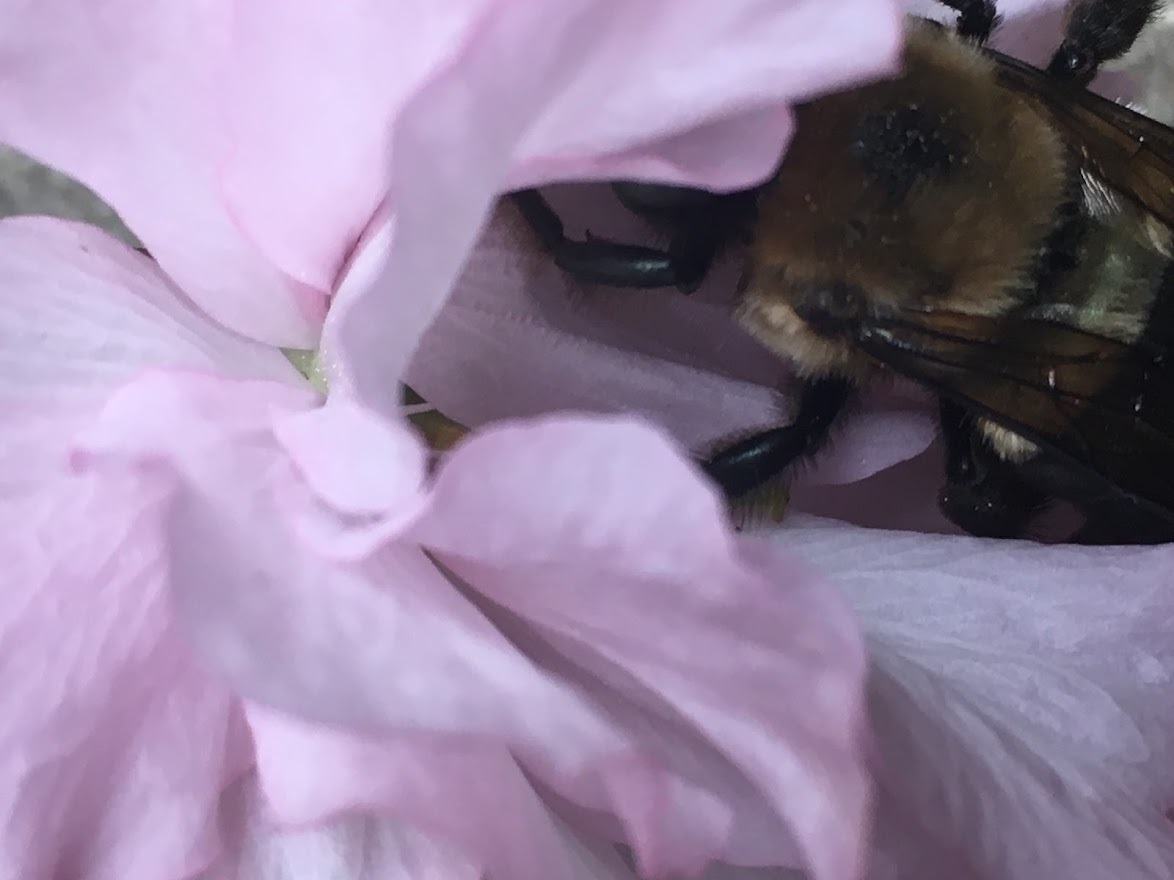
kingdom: Animalia
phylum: Arthropoda
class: Insecta
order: Hymenoptera
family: Apidae
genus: Xylocopa
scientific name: Xylocopa virginica
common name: Carpenter bee
